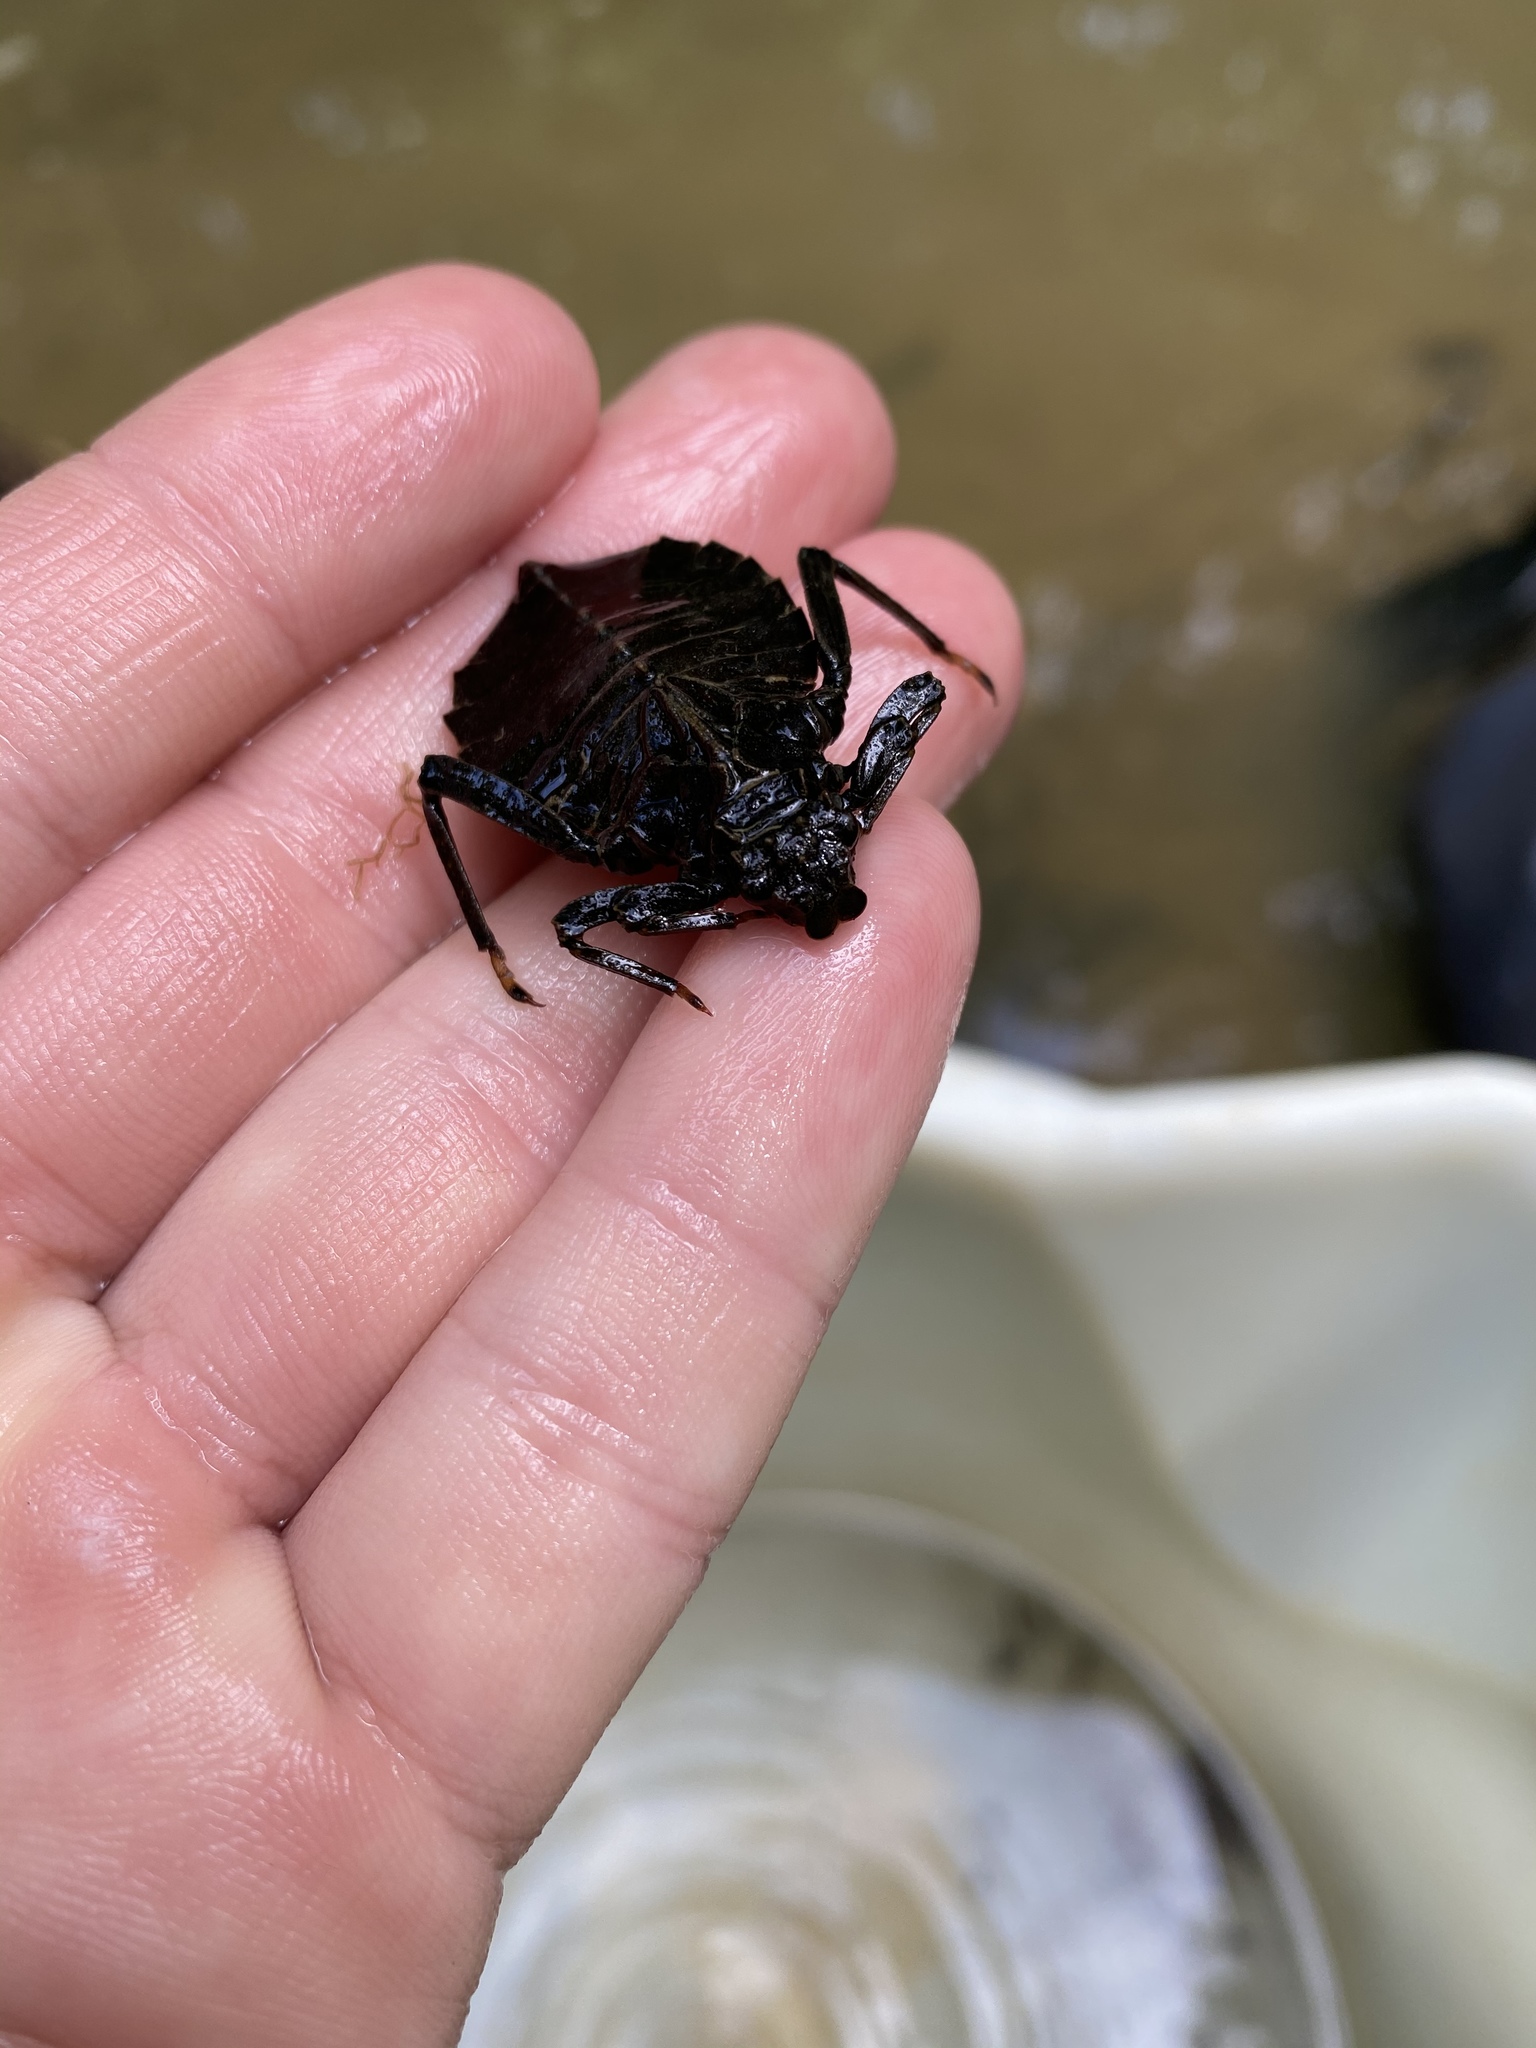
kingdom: Animalia
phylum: Arthropoda
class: Insecta
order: Odonata
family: Gomphidae
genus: Hagenius
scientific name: Hagenius brevistylus
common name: Dragonhunter
